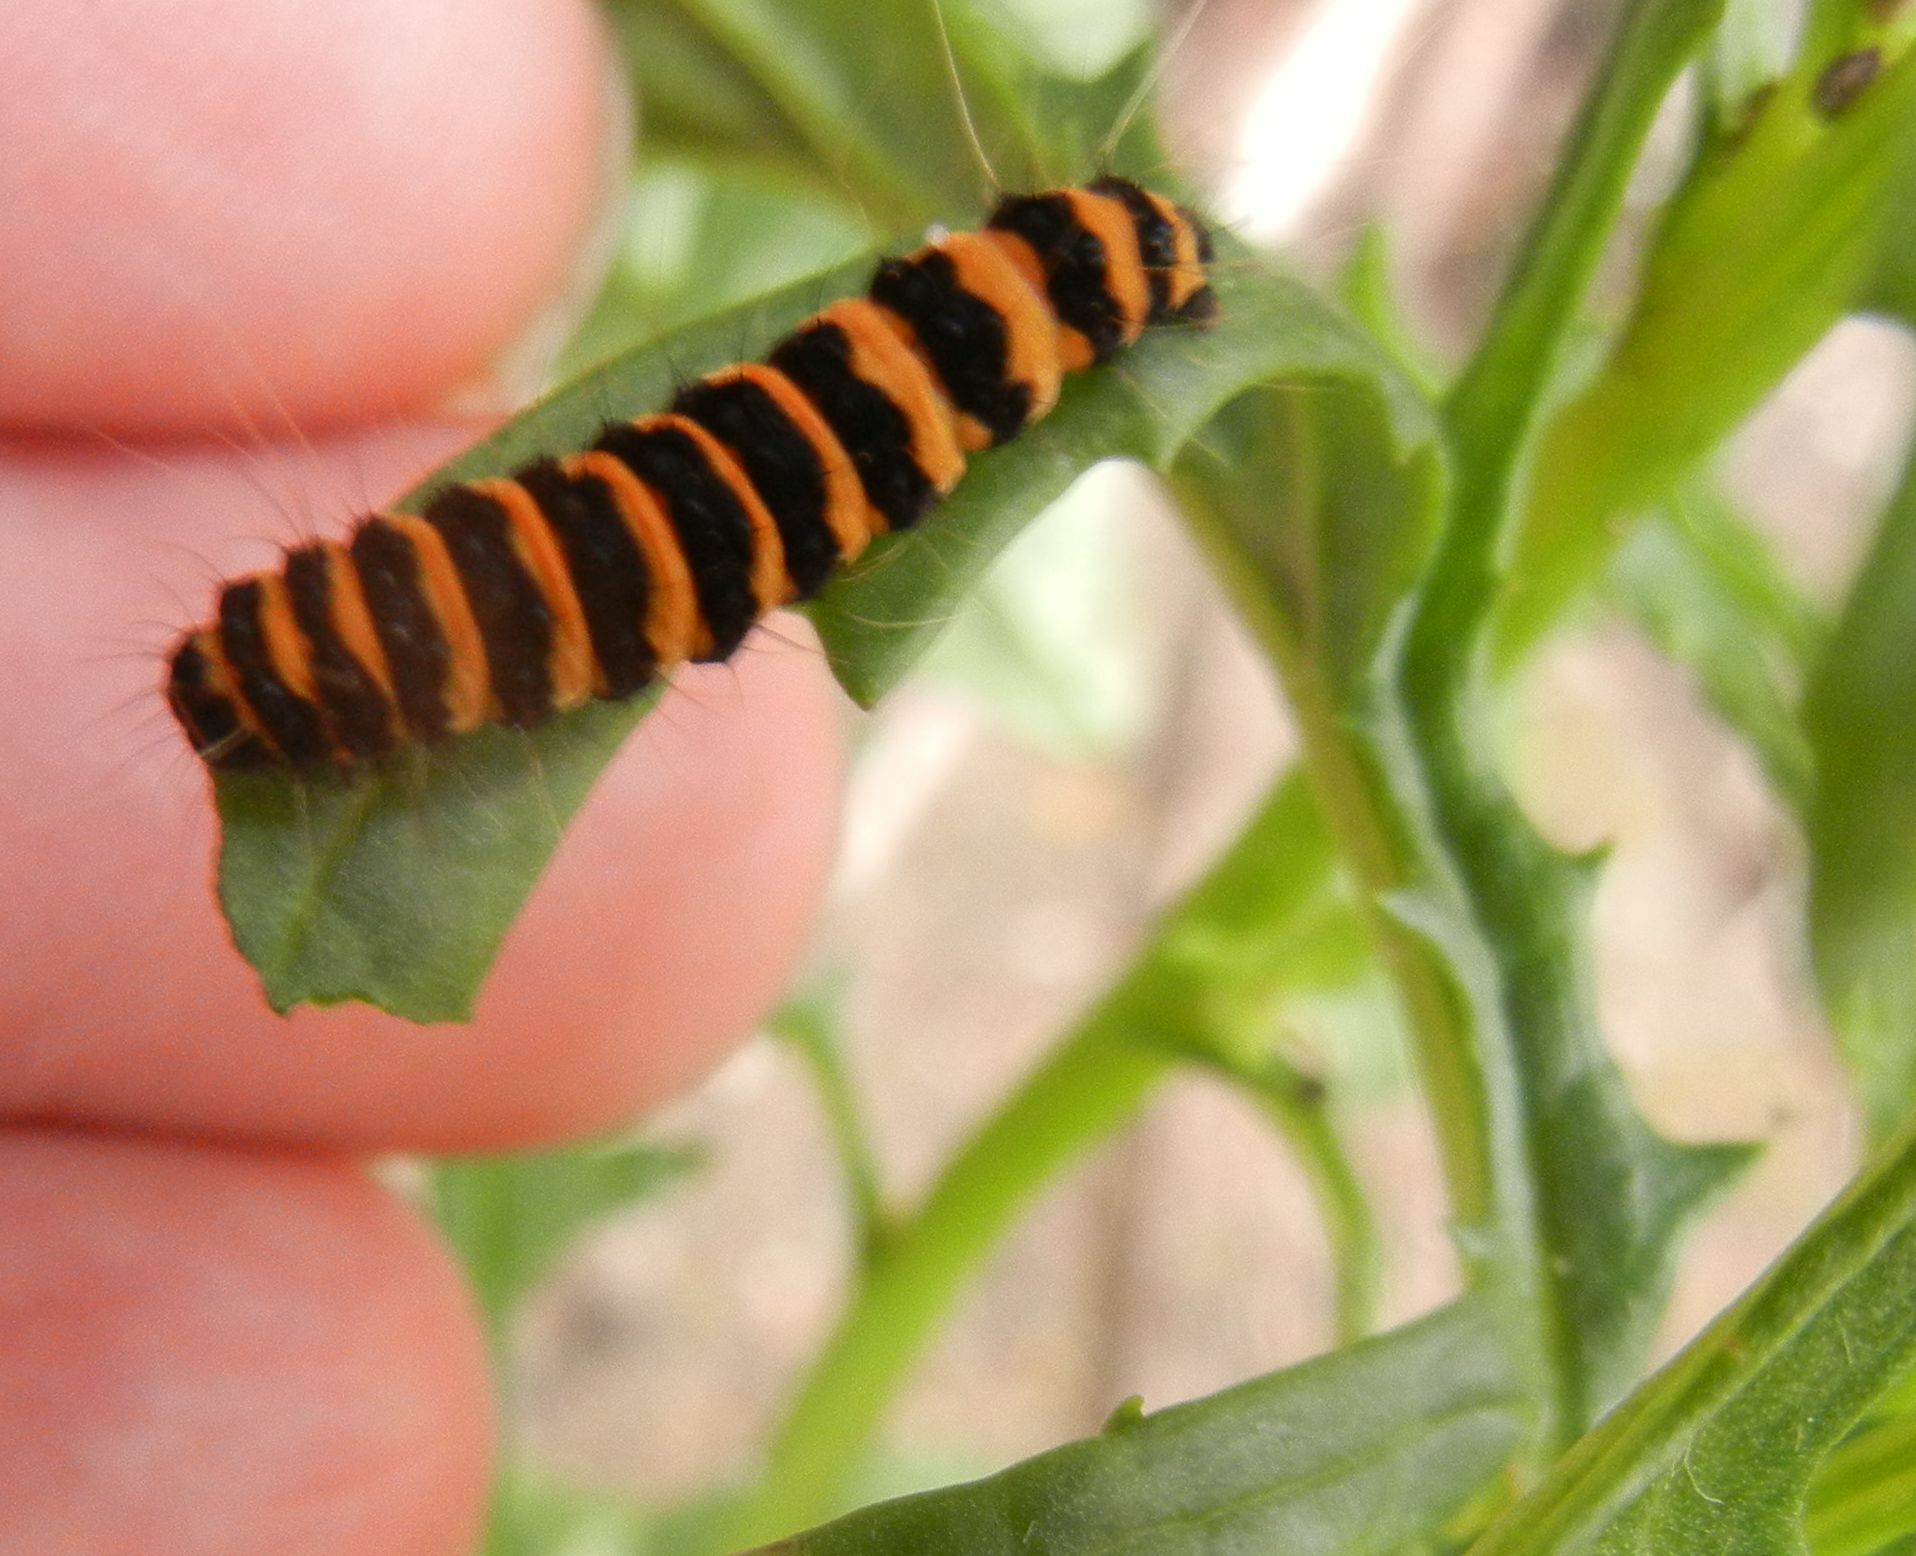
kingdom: Animalia
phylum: Arthropoda
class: Insecta
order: Lepidoptera
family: Erebidae
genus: Tyria
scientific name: Tyria jacobaeae
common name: Cinnabar
